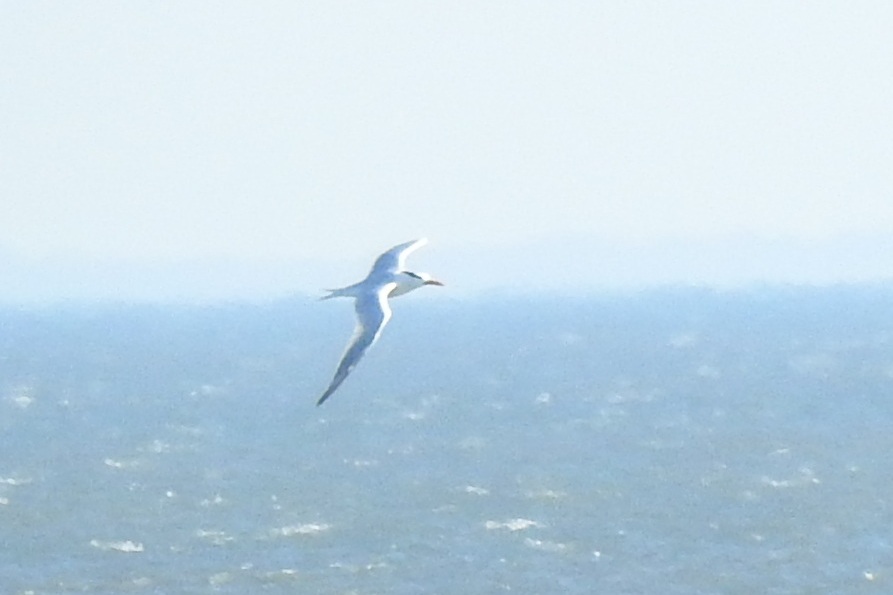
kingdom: Animalia
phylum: Chordata
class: Aves
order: Charadriiformes
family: Laridae
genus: Thalasseus
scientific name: Thalasseus maximus
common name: Royal tern
